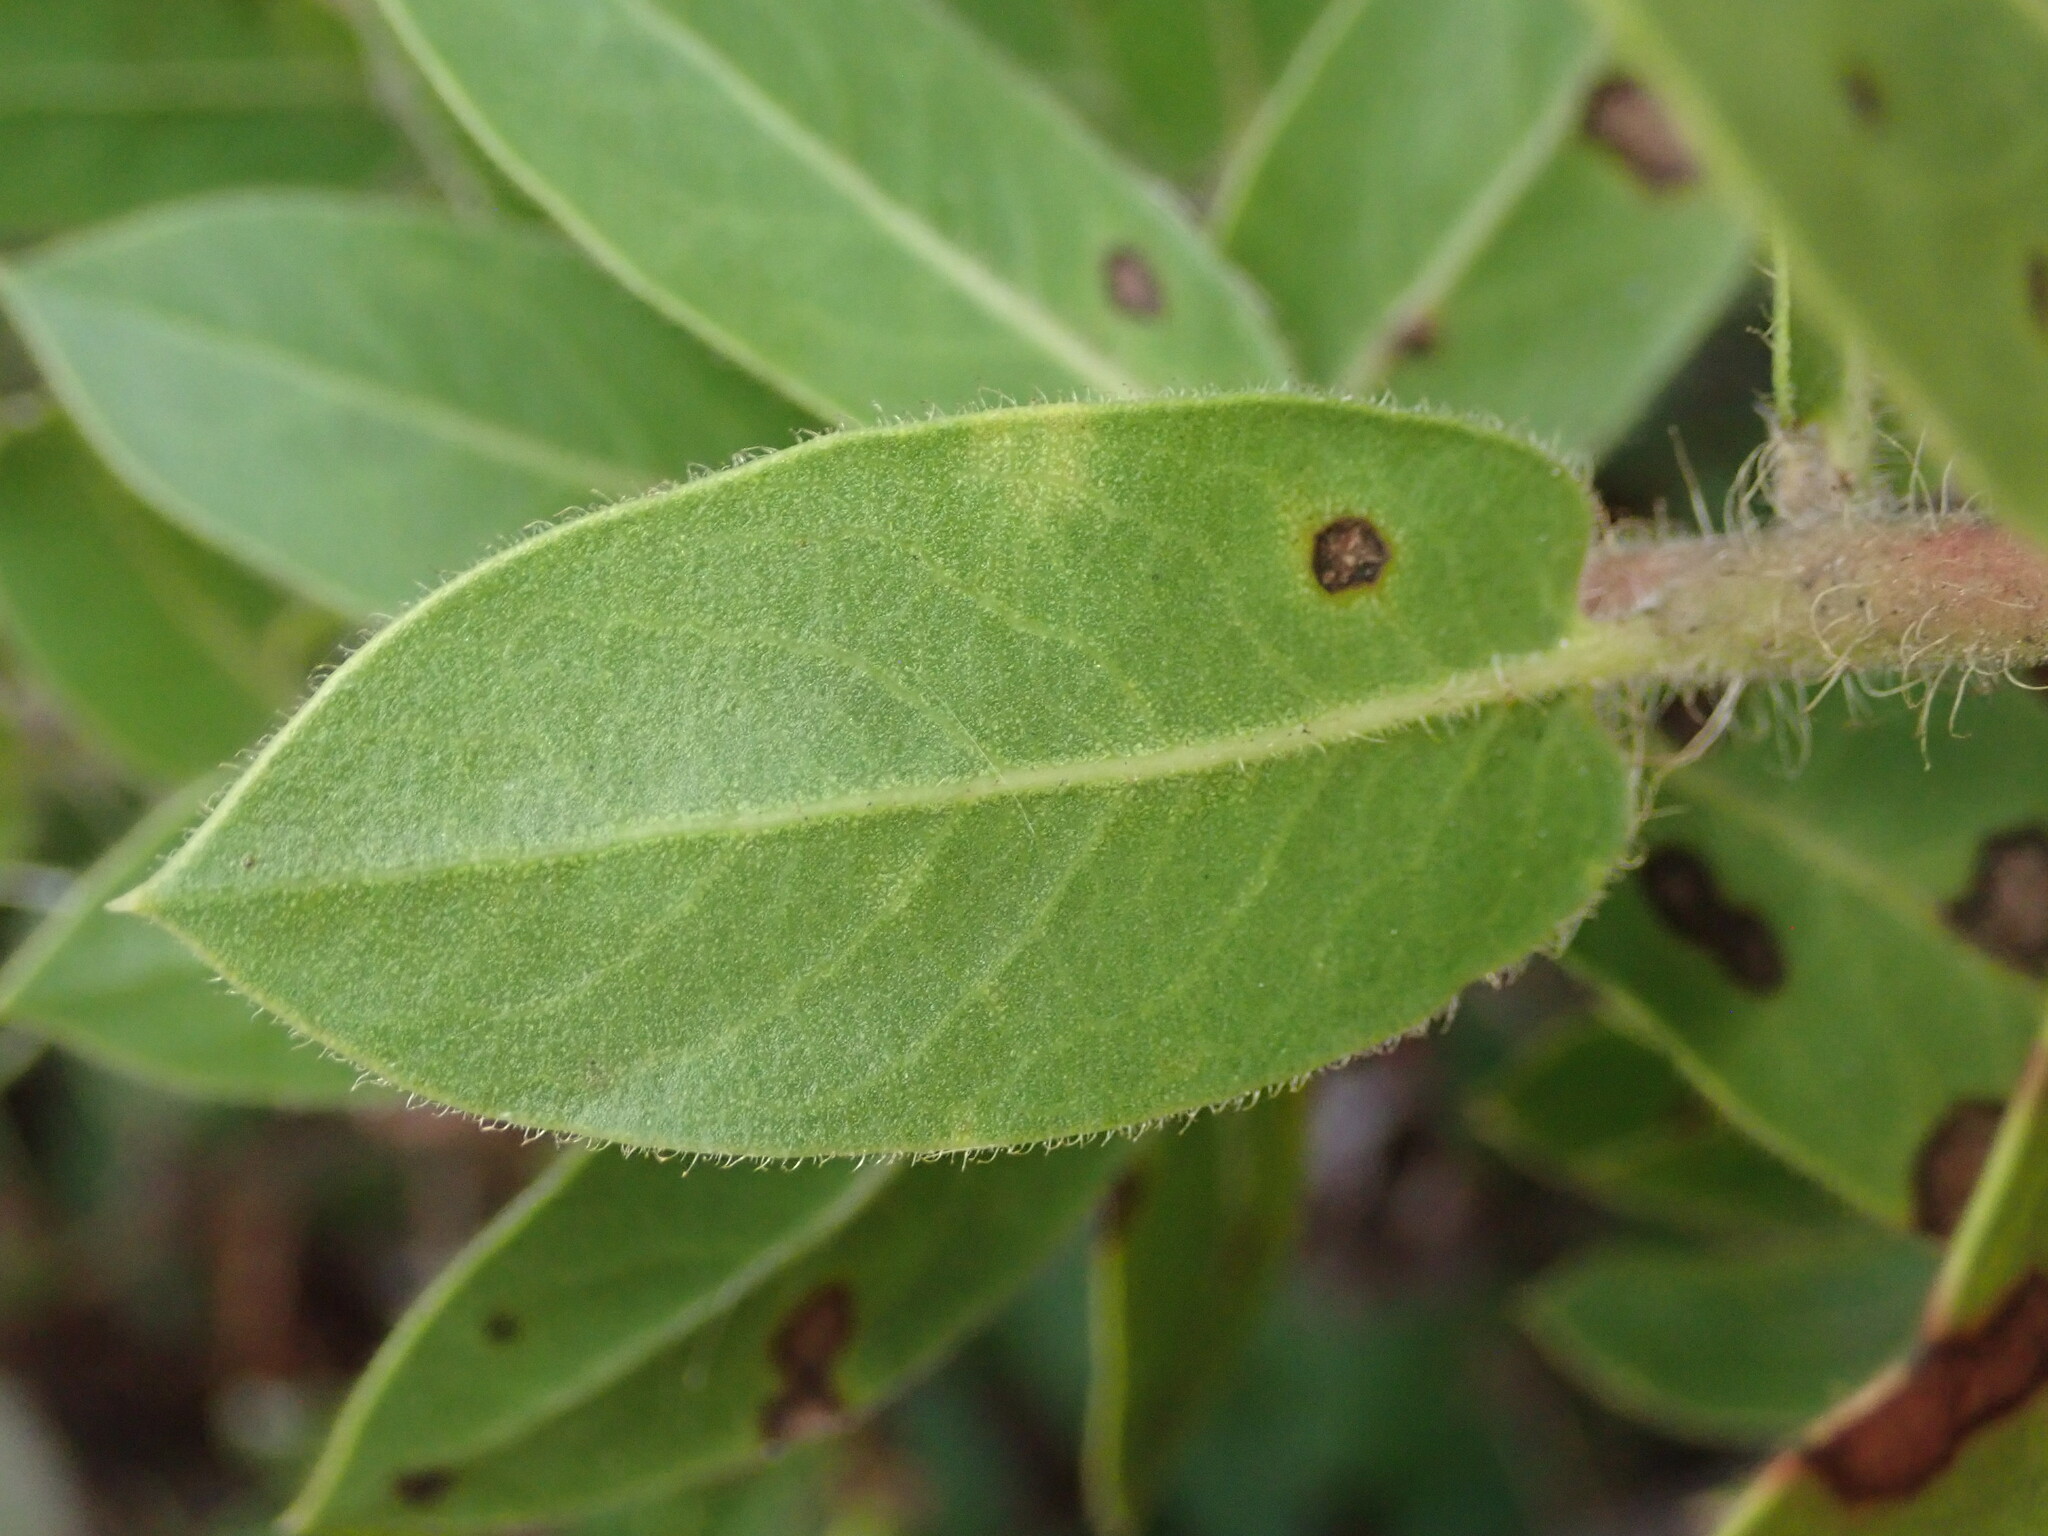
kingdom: Plantae
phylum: Tracheophyta
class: Magnoliopsida
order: Ericales
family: Ericaceae
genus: Arctostaphylos
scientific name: Arctostaphylos montaraensis
